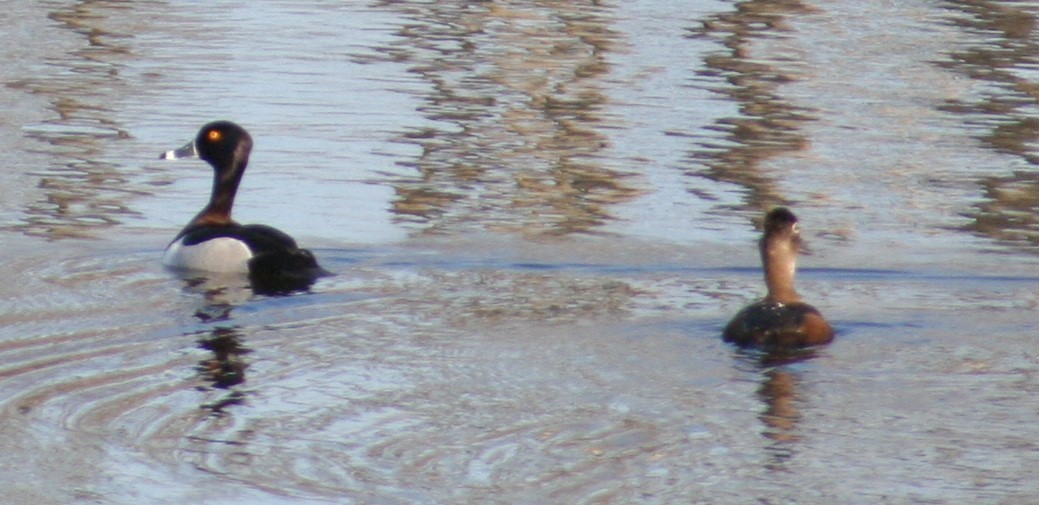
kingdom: Animalia
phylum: Chordata
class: Aves
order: Anseriformes
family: Anatidae
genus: Aythya
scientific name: Aythya collaris
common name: Ring-necked duck
